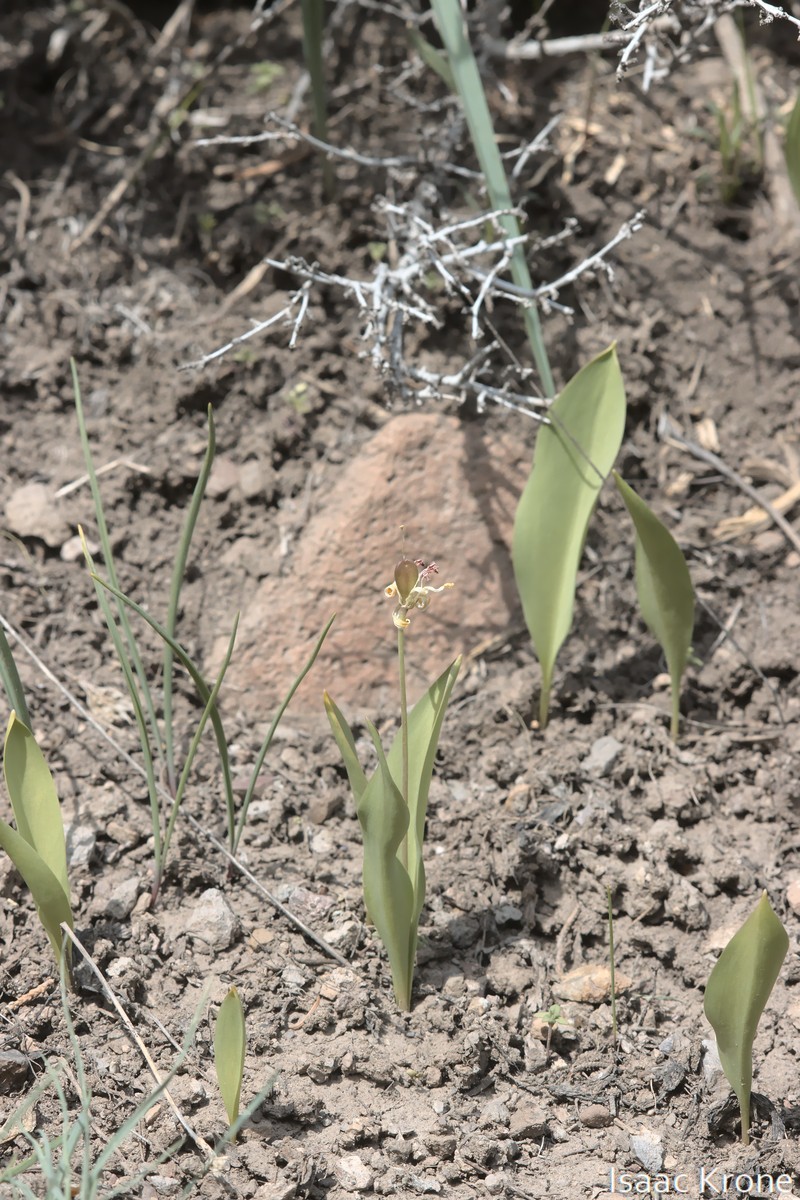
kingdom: Plantae
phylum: Tracheophyta
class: Liliopsida
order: Liliales
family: Liliaceae
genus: Erythronium
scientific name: Erythronium grandiflorum
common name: Avalanche-lily
